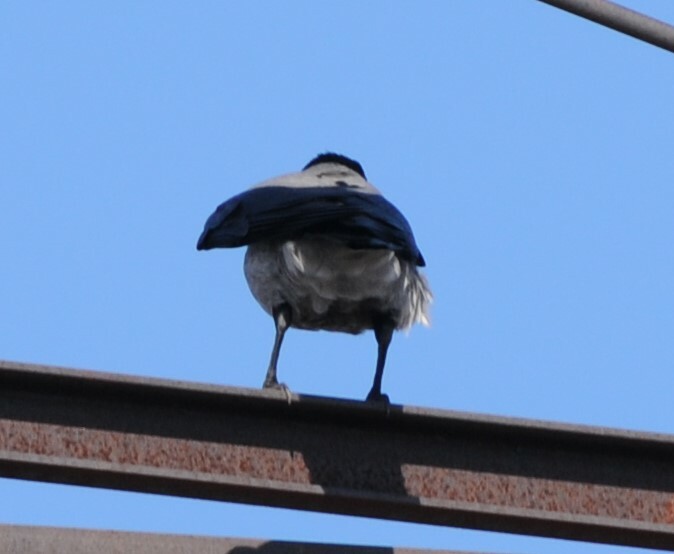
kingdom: Animalia
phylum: Chordata
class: Aves
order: Passeriformes
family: Corvidae
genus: Corvus
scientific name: Corvus cornix
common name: Hooded crow
